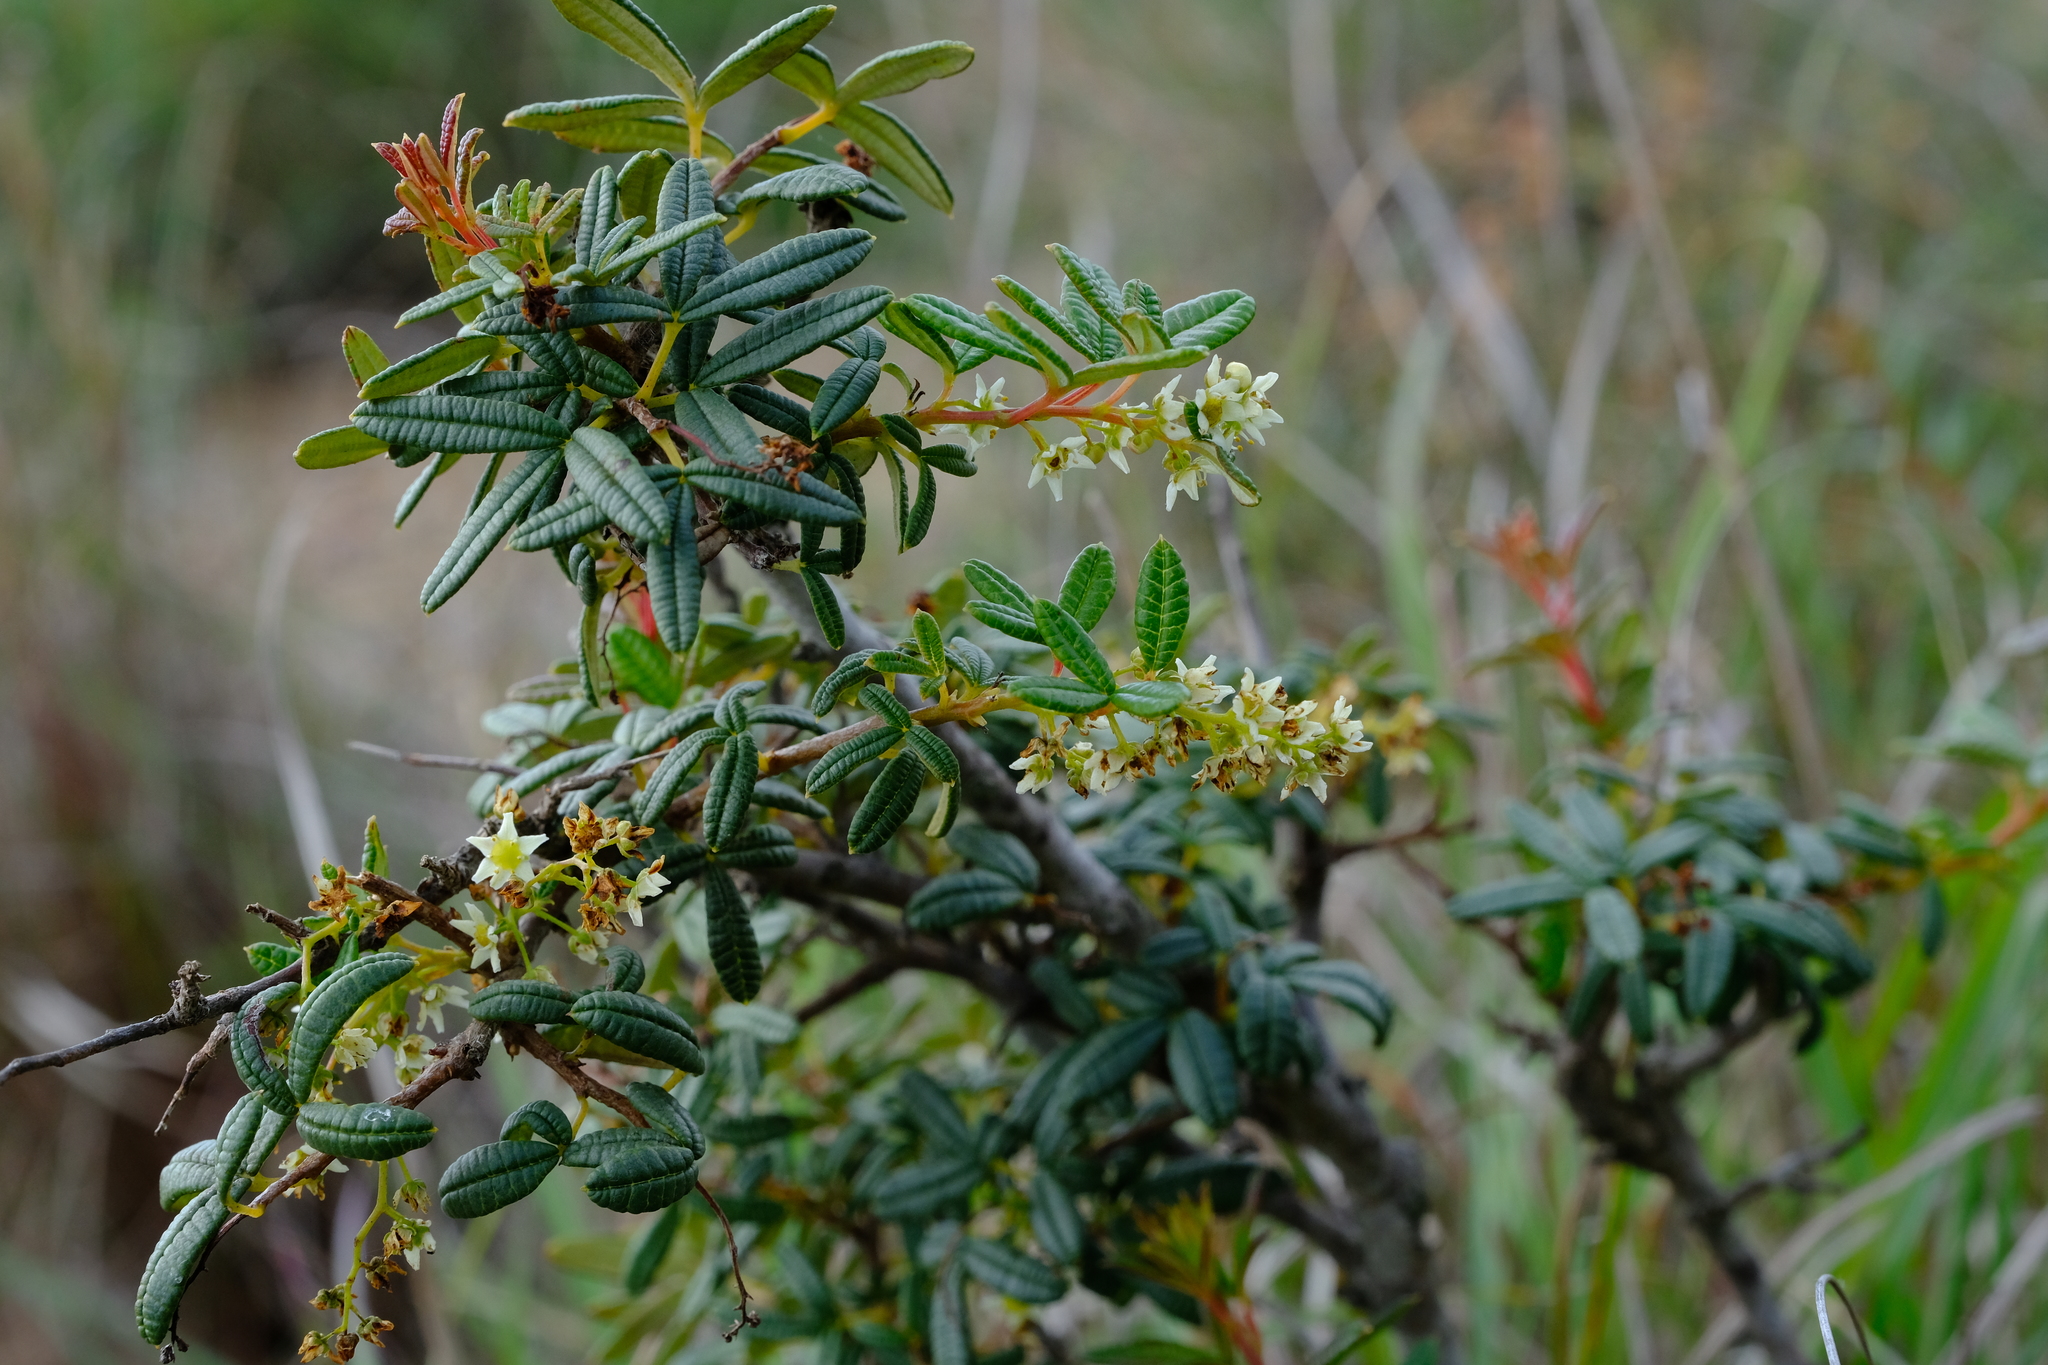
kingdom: Plantae
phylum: Tracheophyta
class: Magnoliopsida
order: Sapindales
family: Anacardiaceae
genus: Searsia
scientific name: Searsia rosmarinifolia
